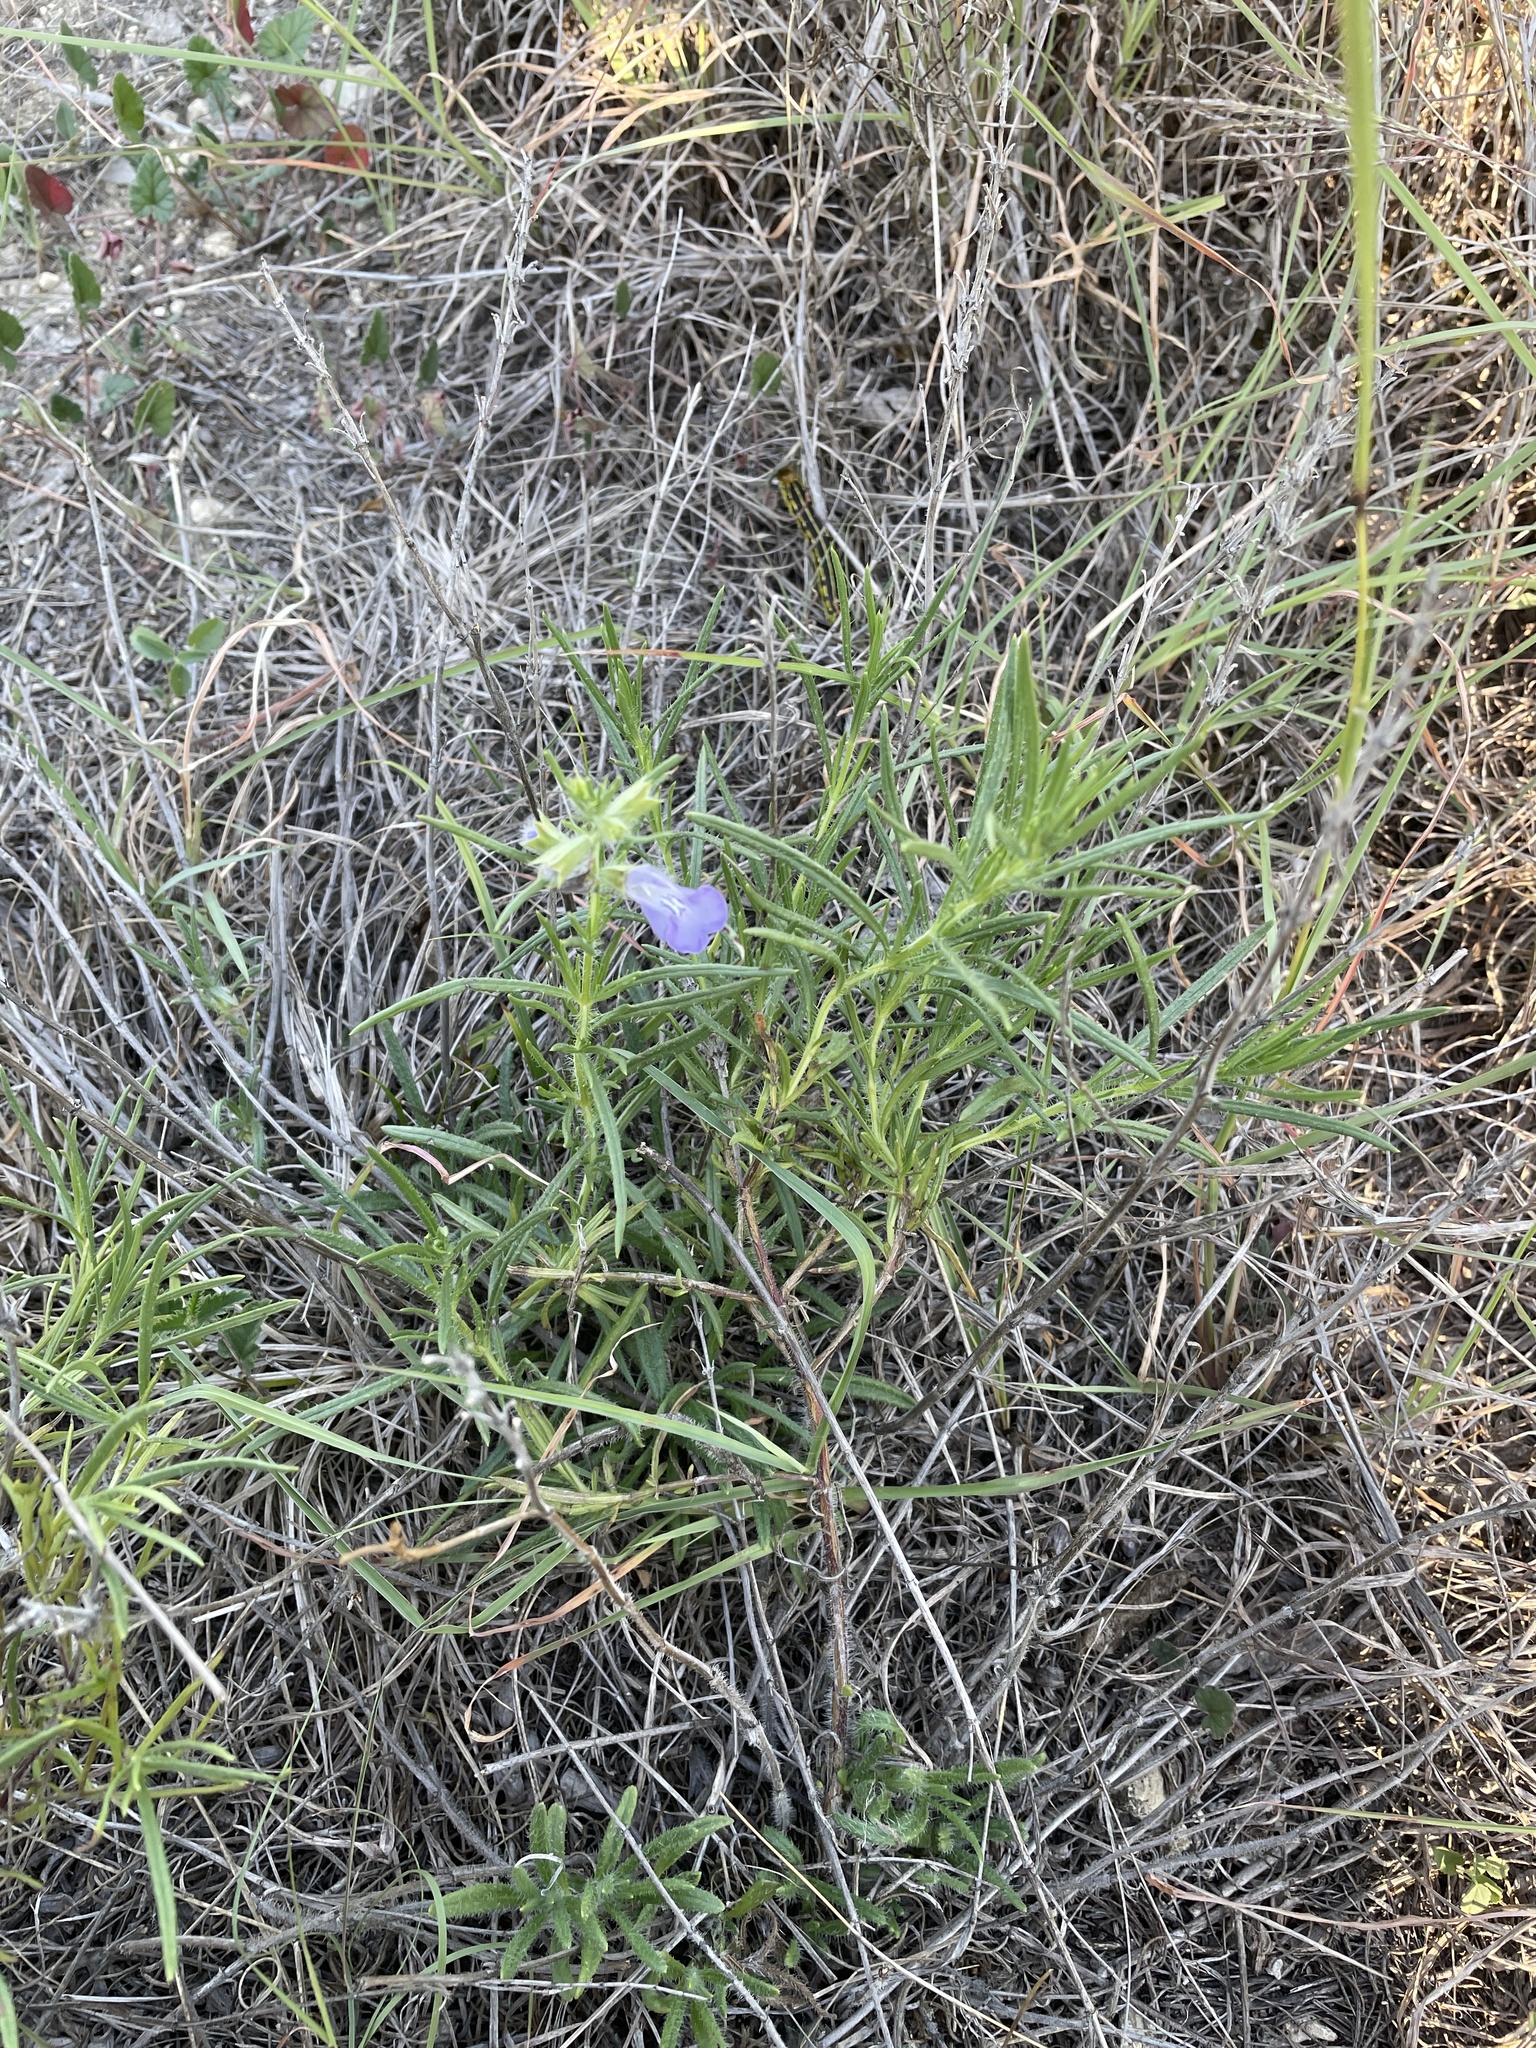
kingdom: Plantae
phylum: Tracheophyta
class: Magnoliopsida
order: Lamiales
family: Lamiaceae
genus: Salvia
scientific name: Salvia engelmannii
